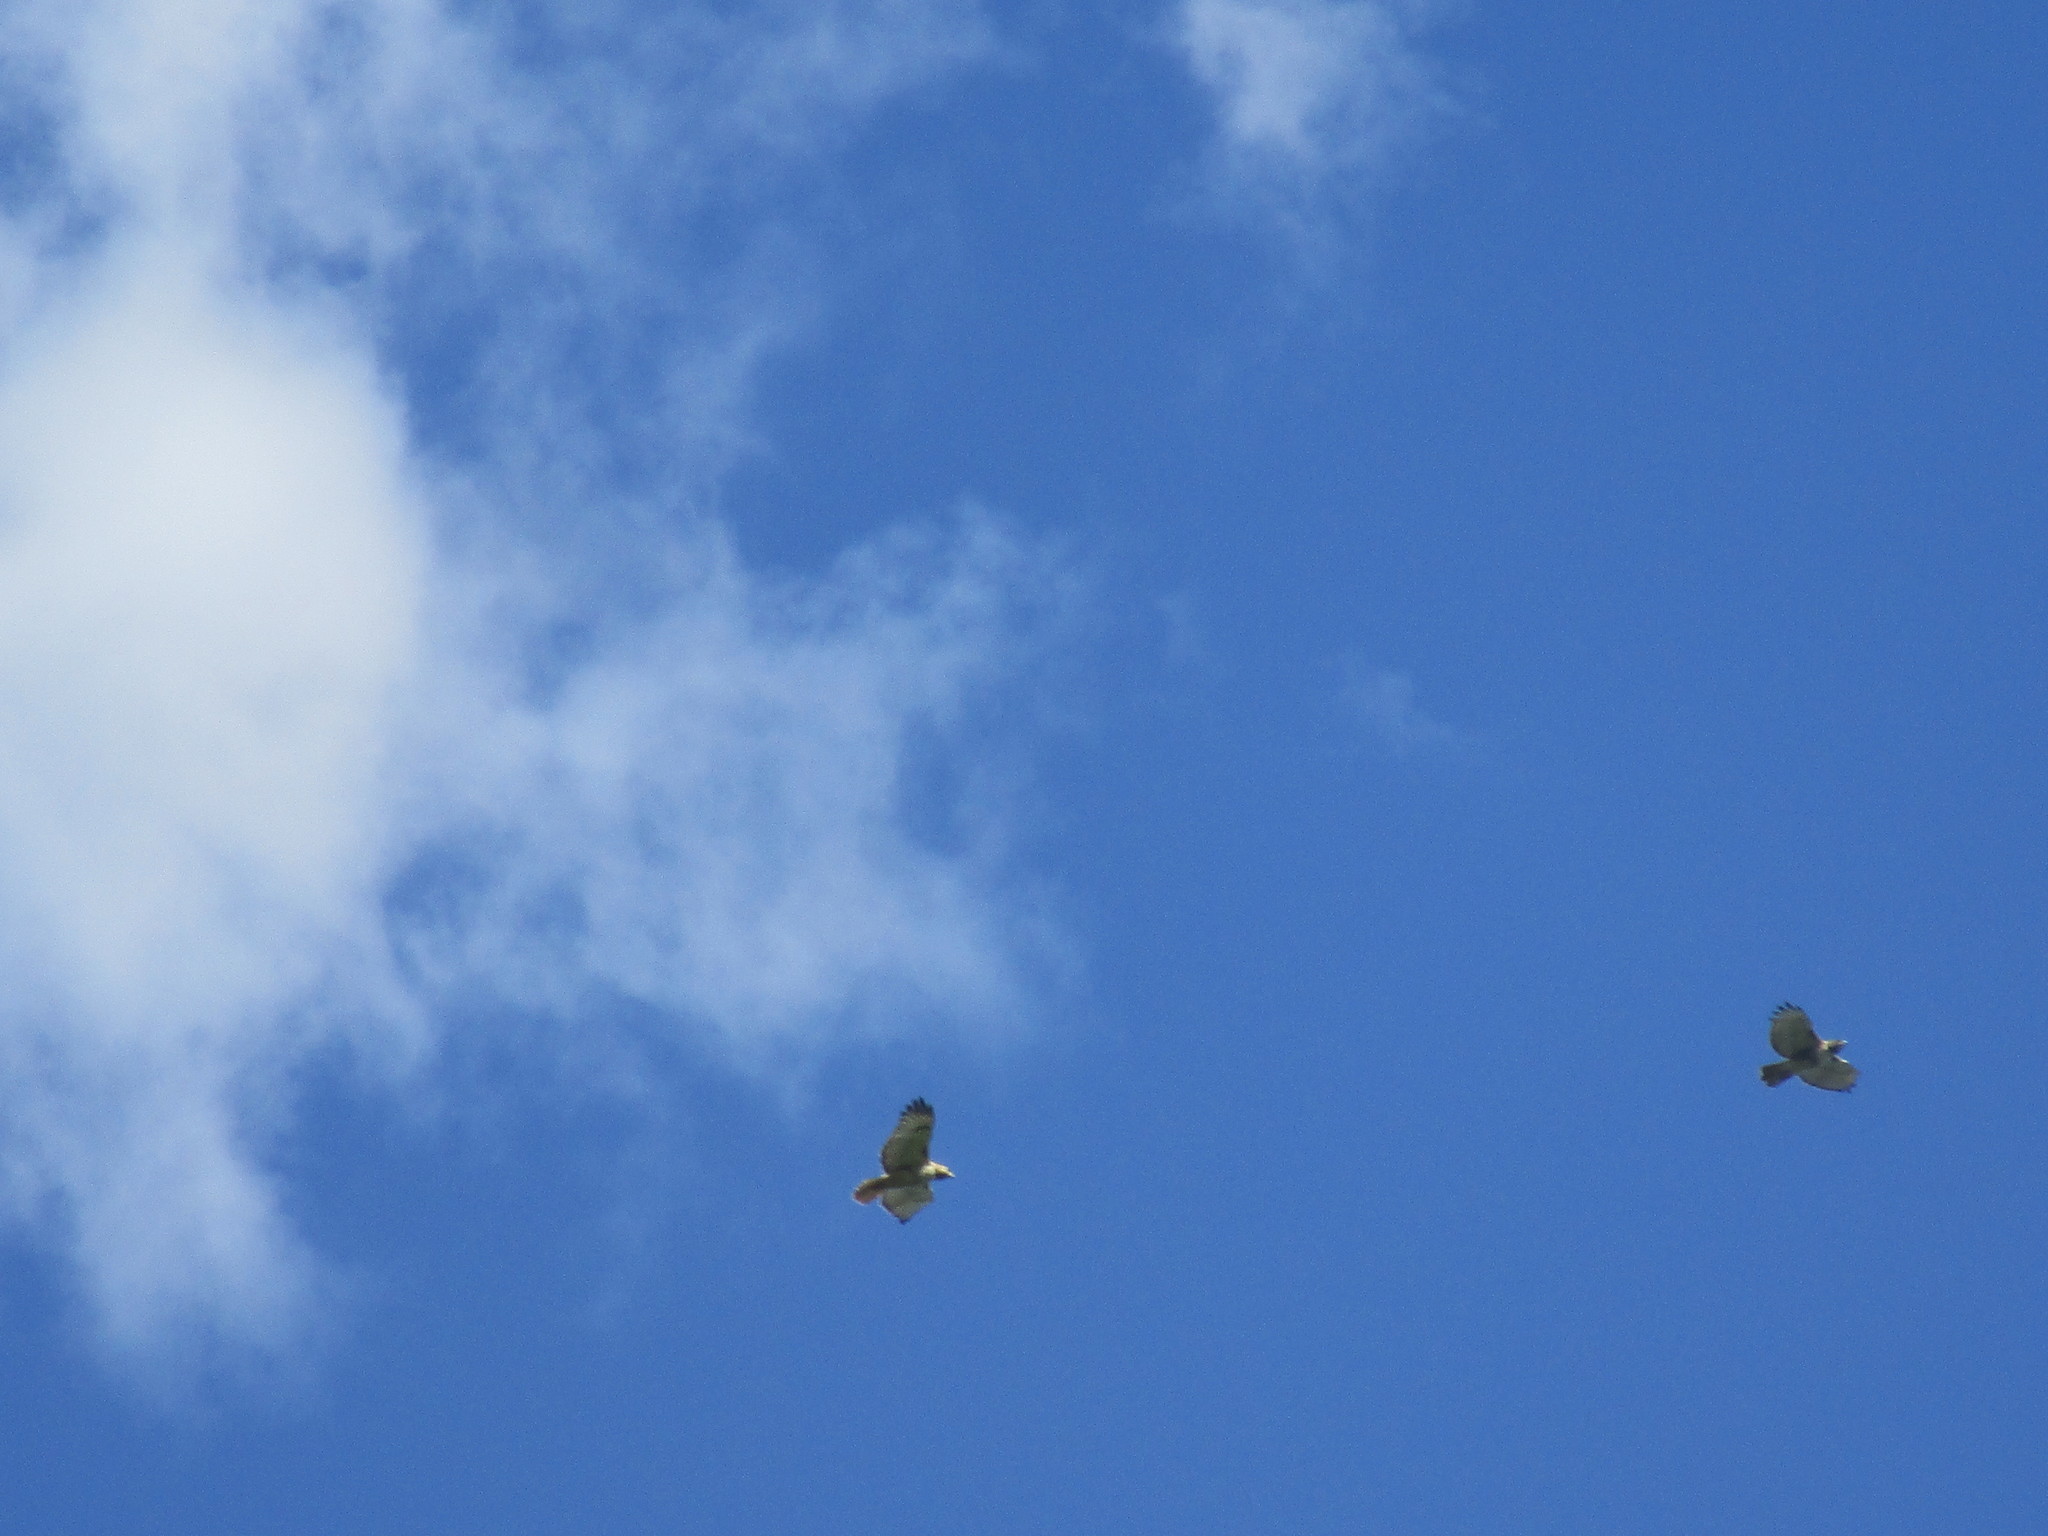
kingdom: Animalia
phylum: Chordata
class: Aves
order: Accipitriformes
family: Accipitridae
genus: Buteo
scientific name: Buteo jamaicensis
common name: Red-tailed hawk
